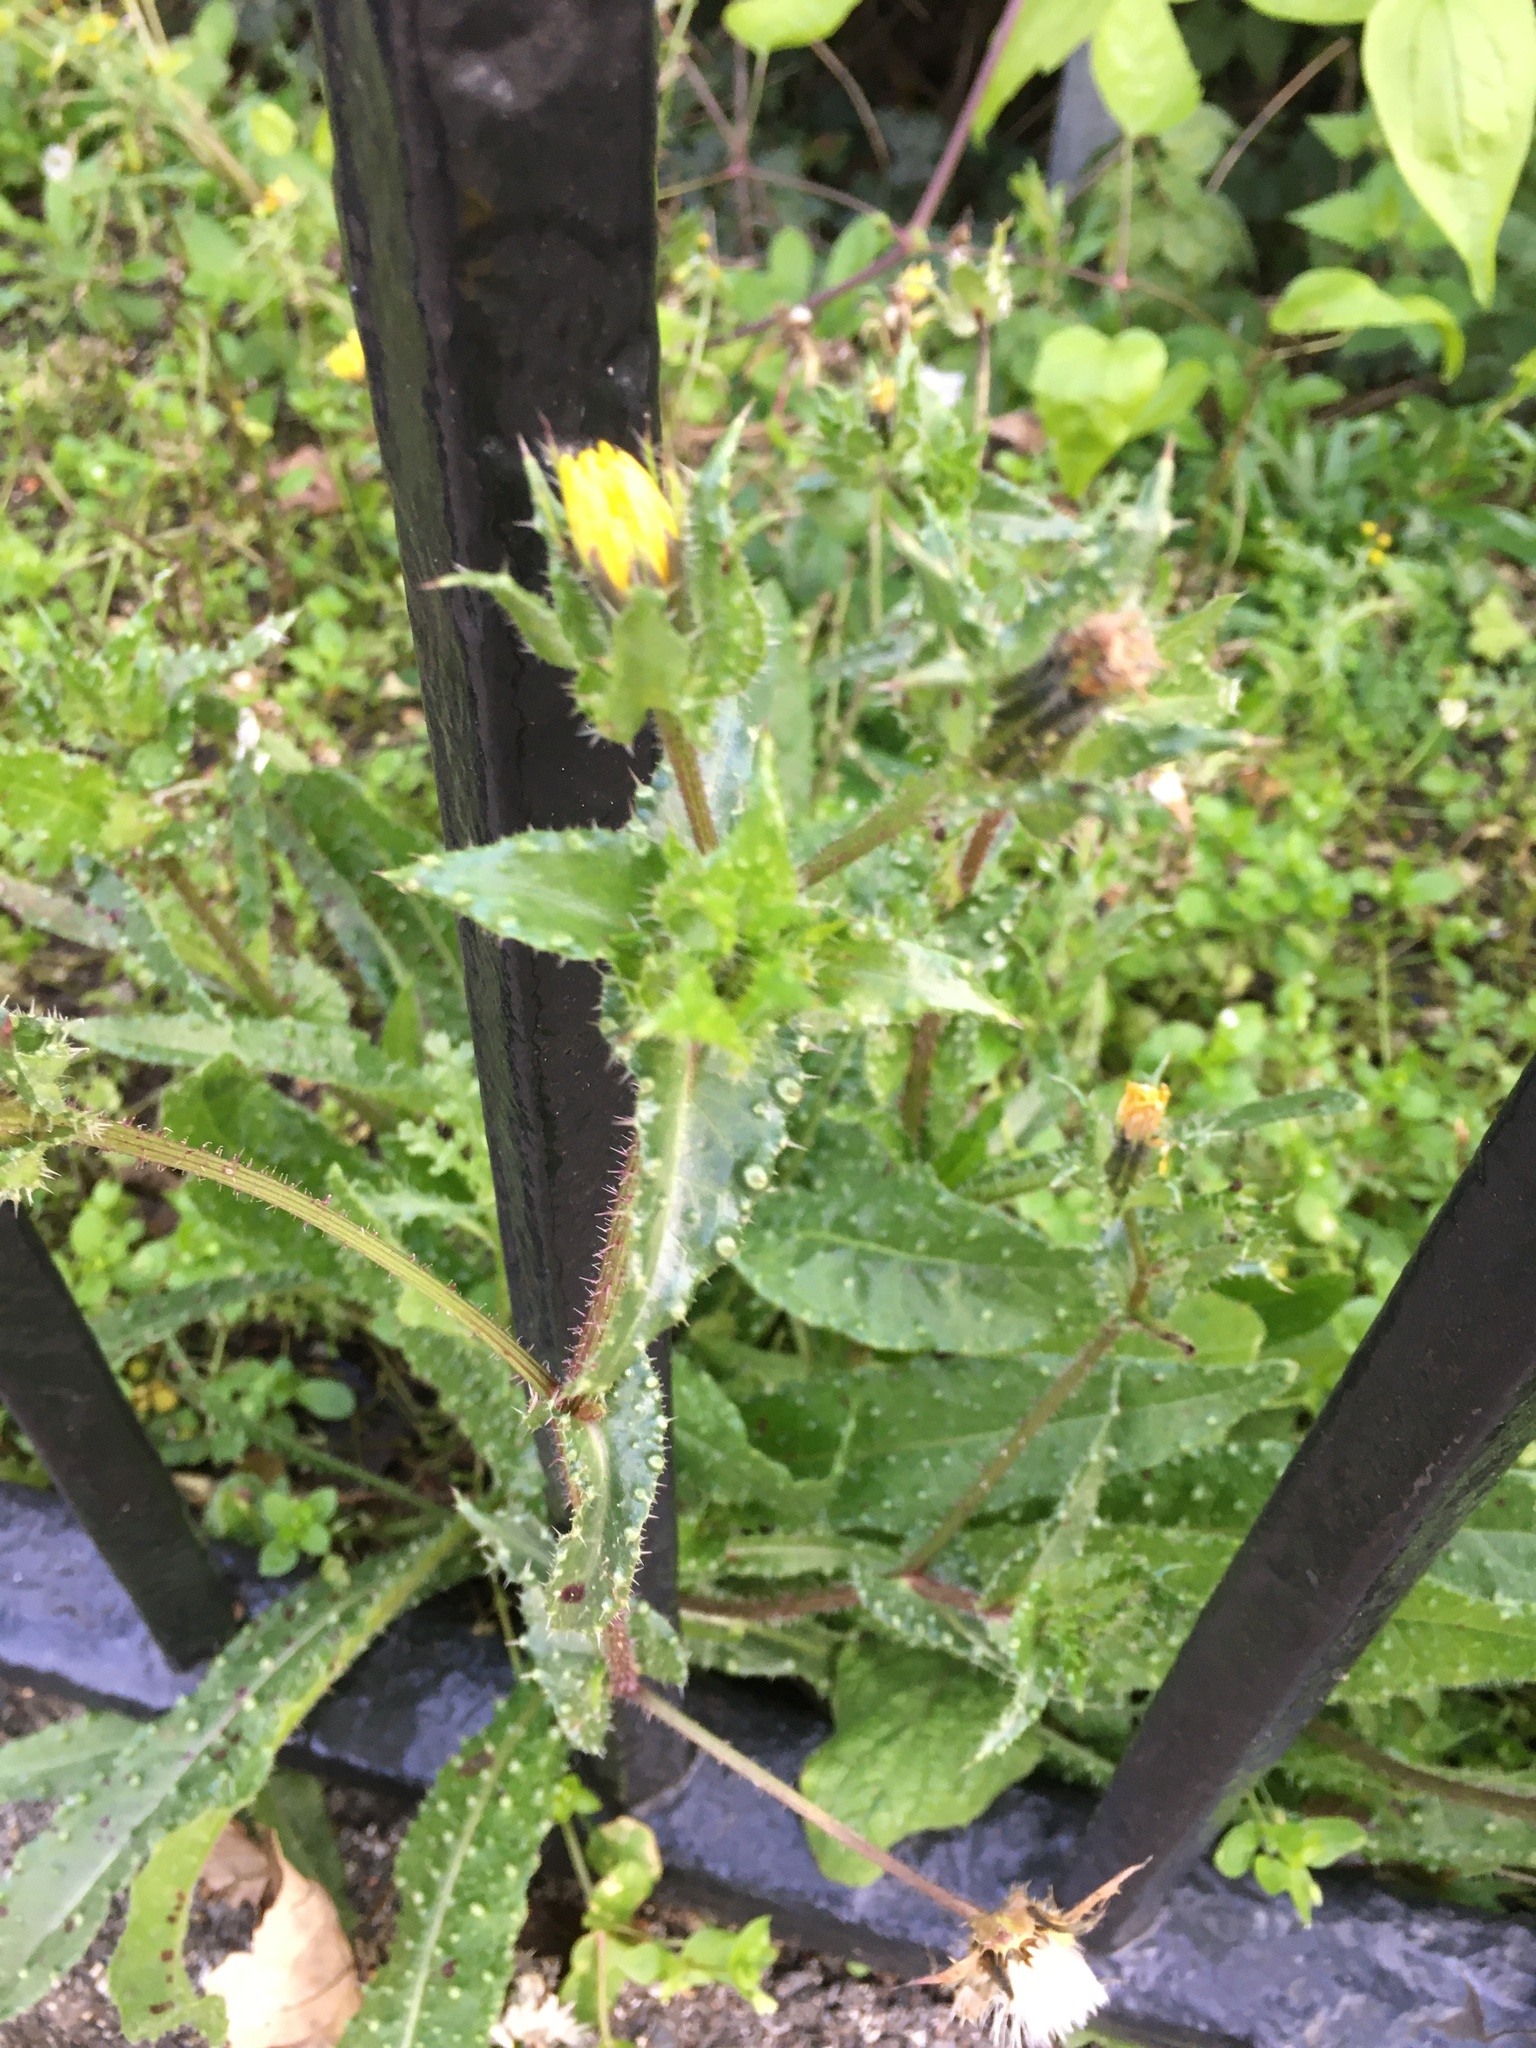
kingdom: Plantae
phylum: Tracheophyta
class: Magnoliopsida
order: Asterales
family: Asteraceae
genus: Helminthotheca
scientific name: Helminthotheca echioides
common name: Ox-tongue
